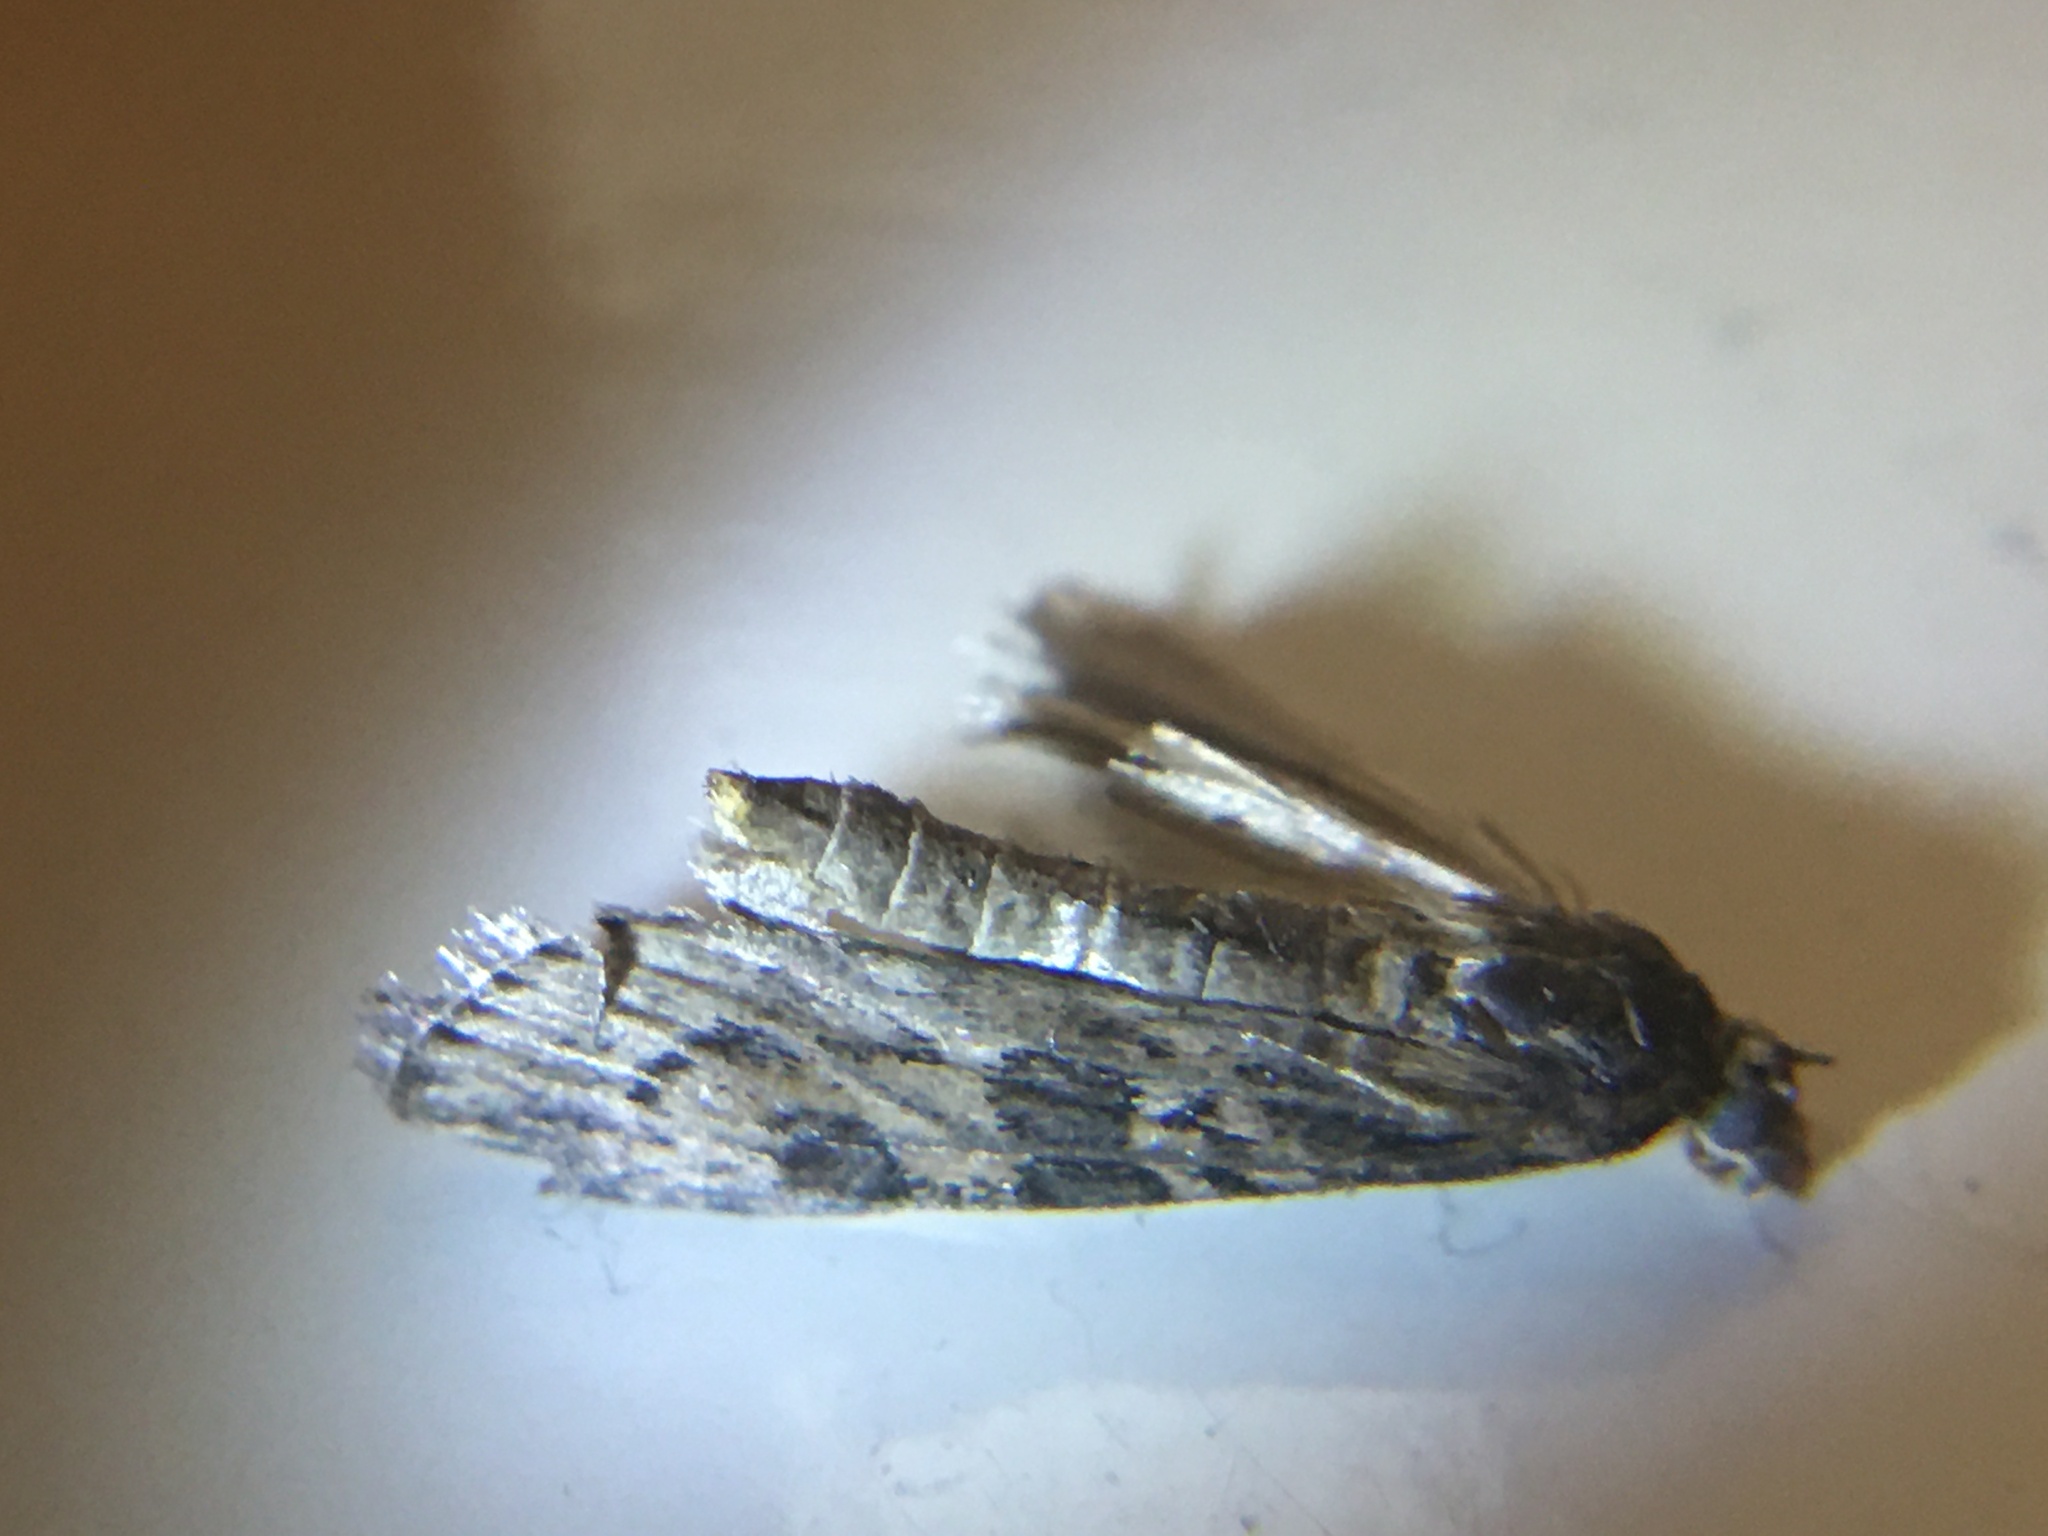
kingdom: Animalia
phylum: Arthropoda
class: Insecta
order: Lepidoptera
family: Crambidae
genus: Nomophila
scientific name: Nomophila nearctica
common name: American rush veneer
